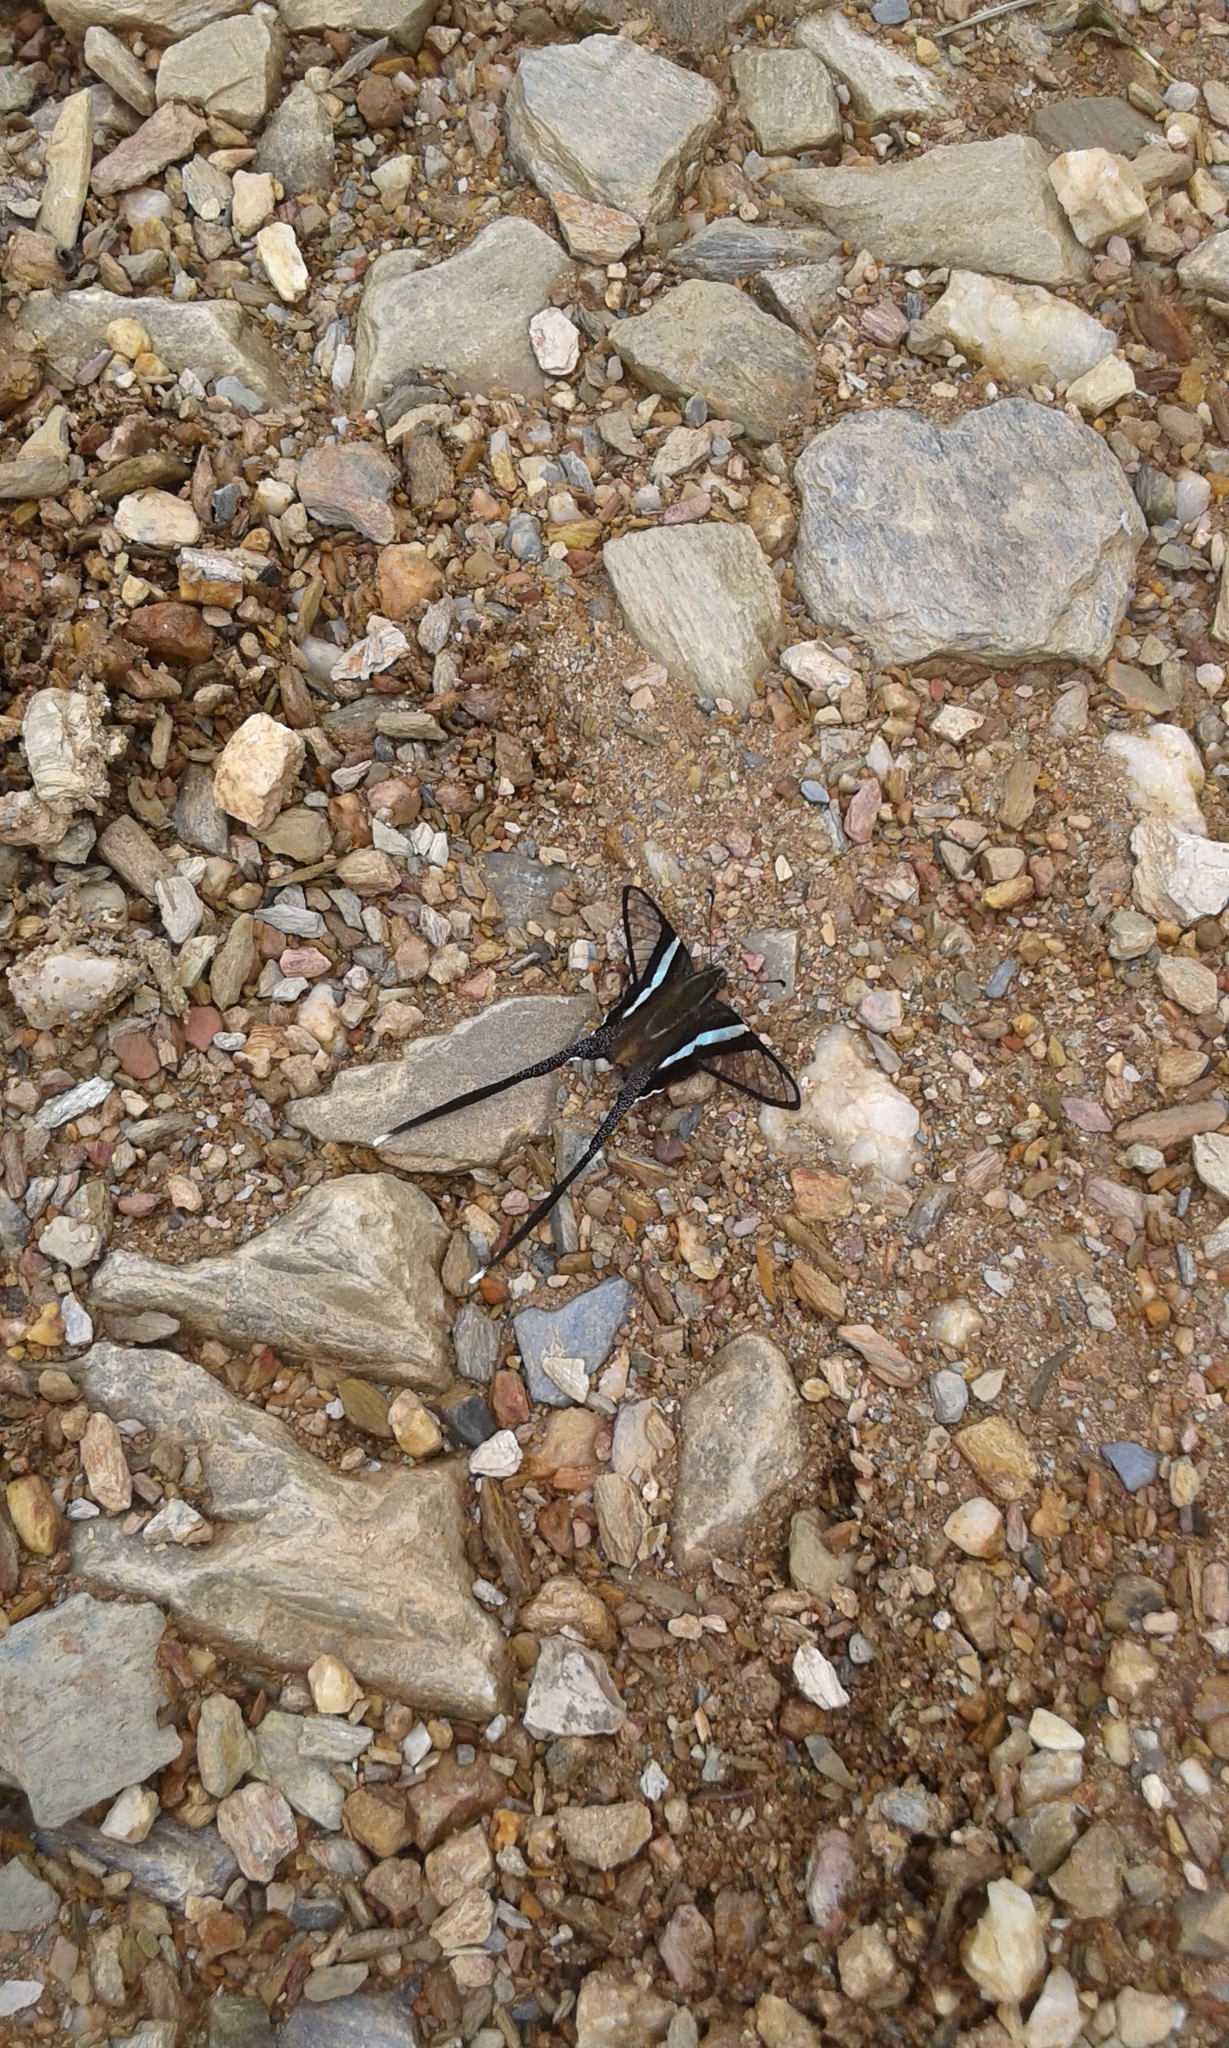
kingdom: Animalia
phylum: Arthropoda
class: Insecta
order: Lepidoptera
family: Papilionidae
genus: Lamproptera
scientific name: Lamproptera meges
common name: Green dragontail
